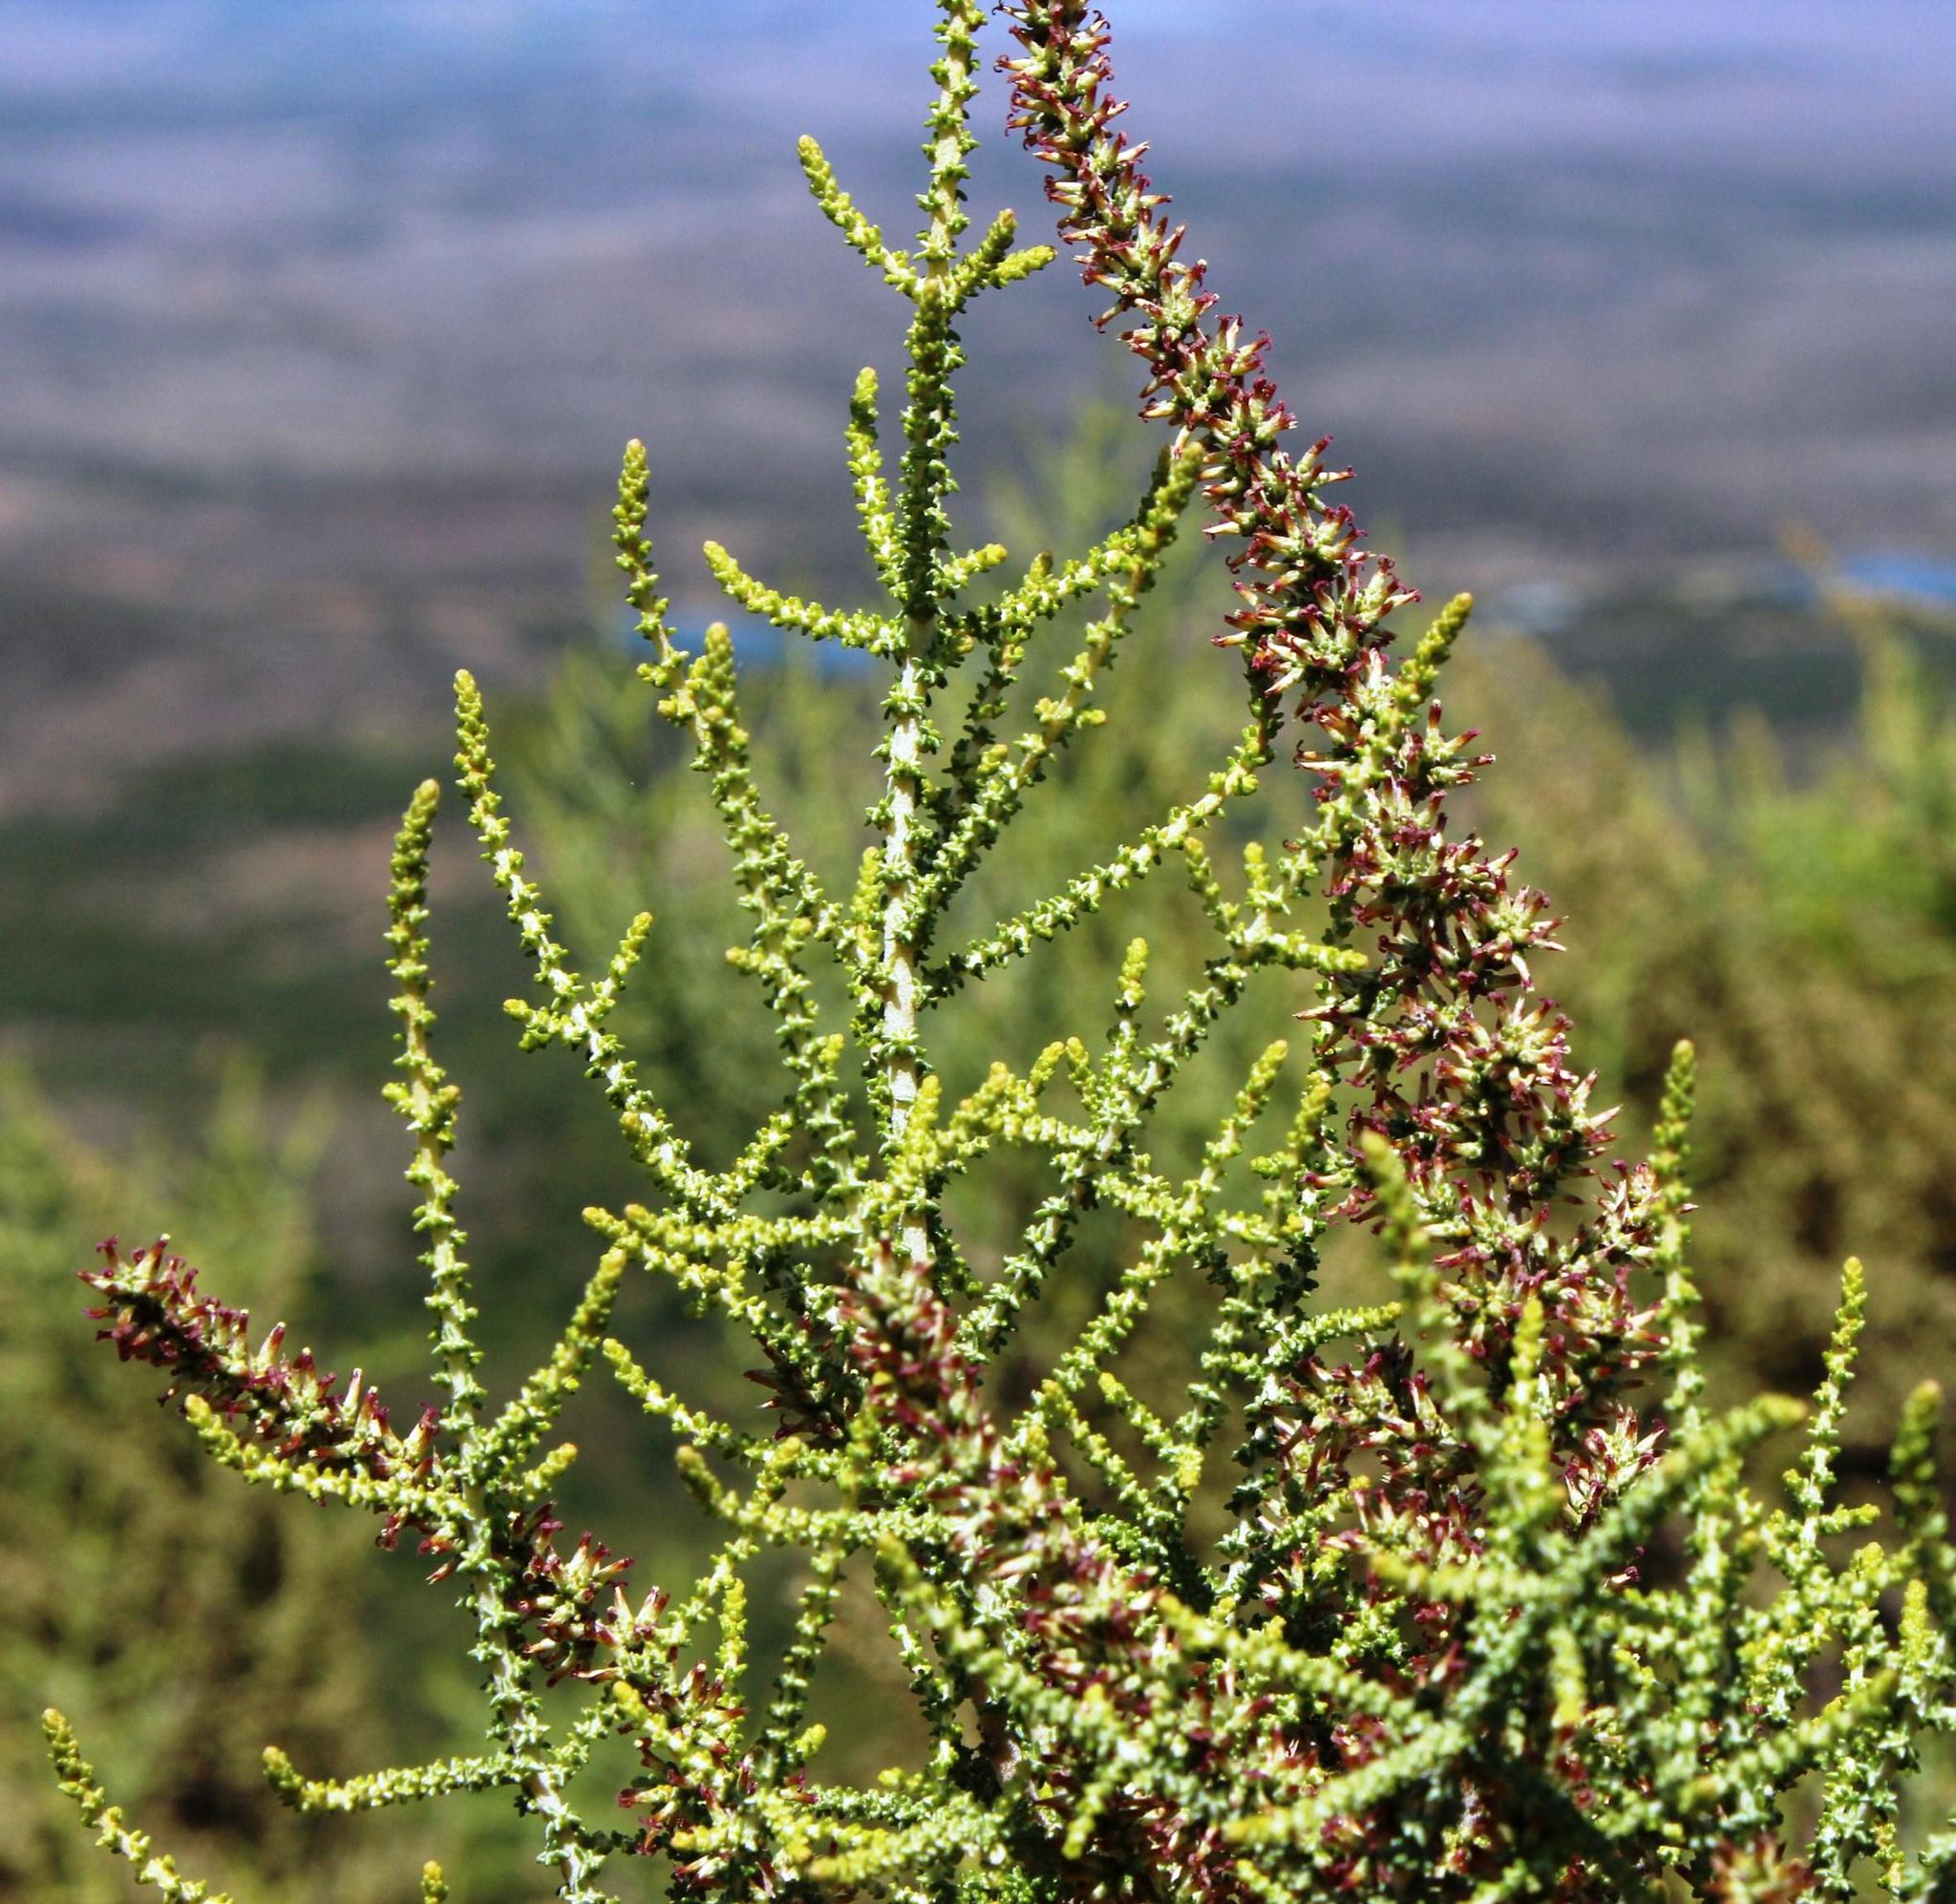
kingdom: Plantae
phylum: Tracheophyta
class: Magnoliopsida
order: Asterales
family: Asteraceae
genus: Seriphium
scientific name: Seriphium plumosum
